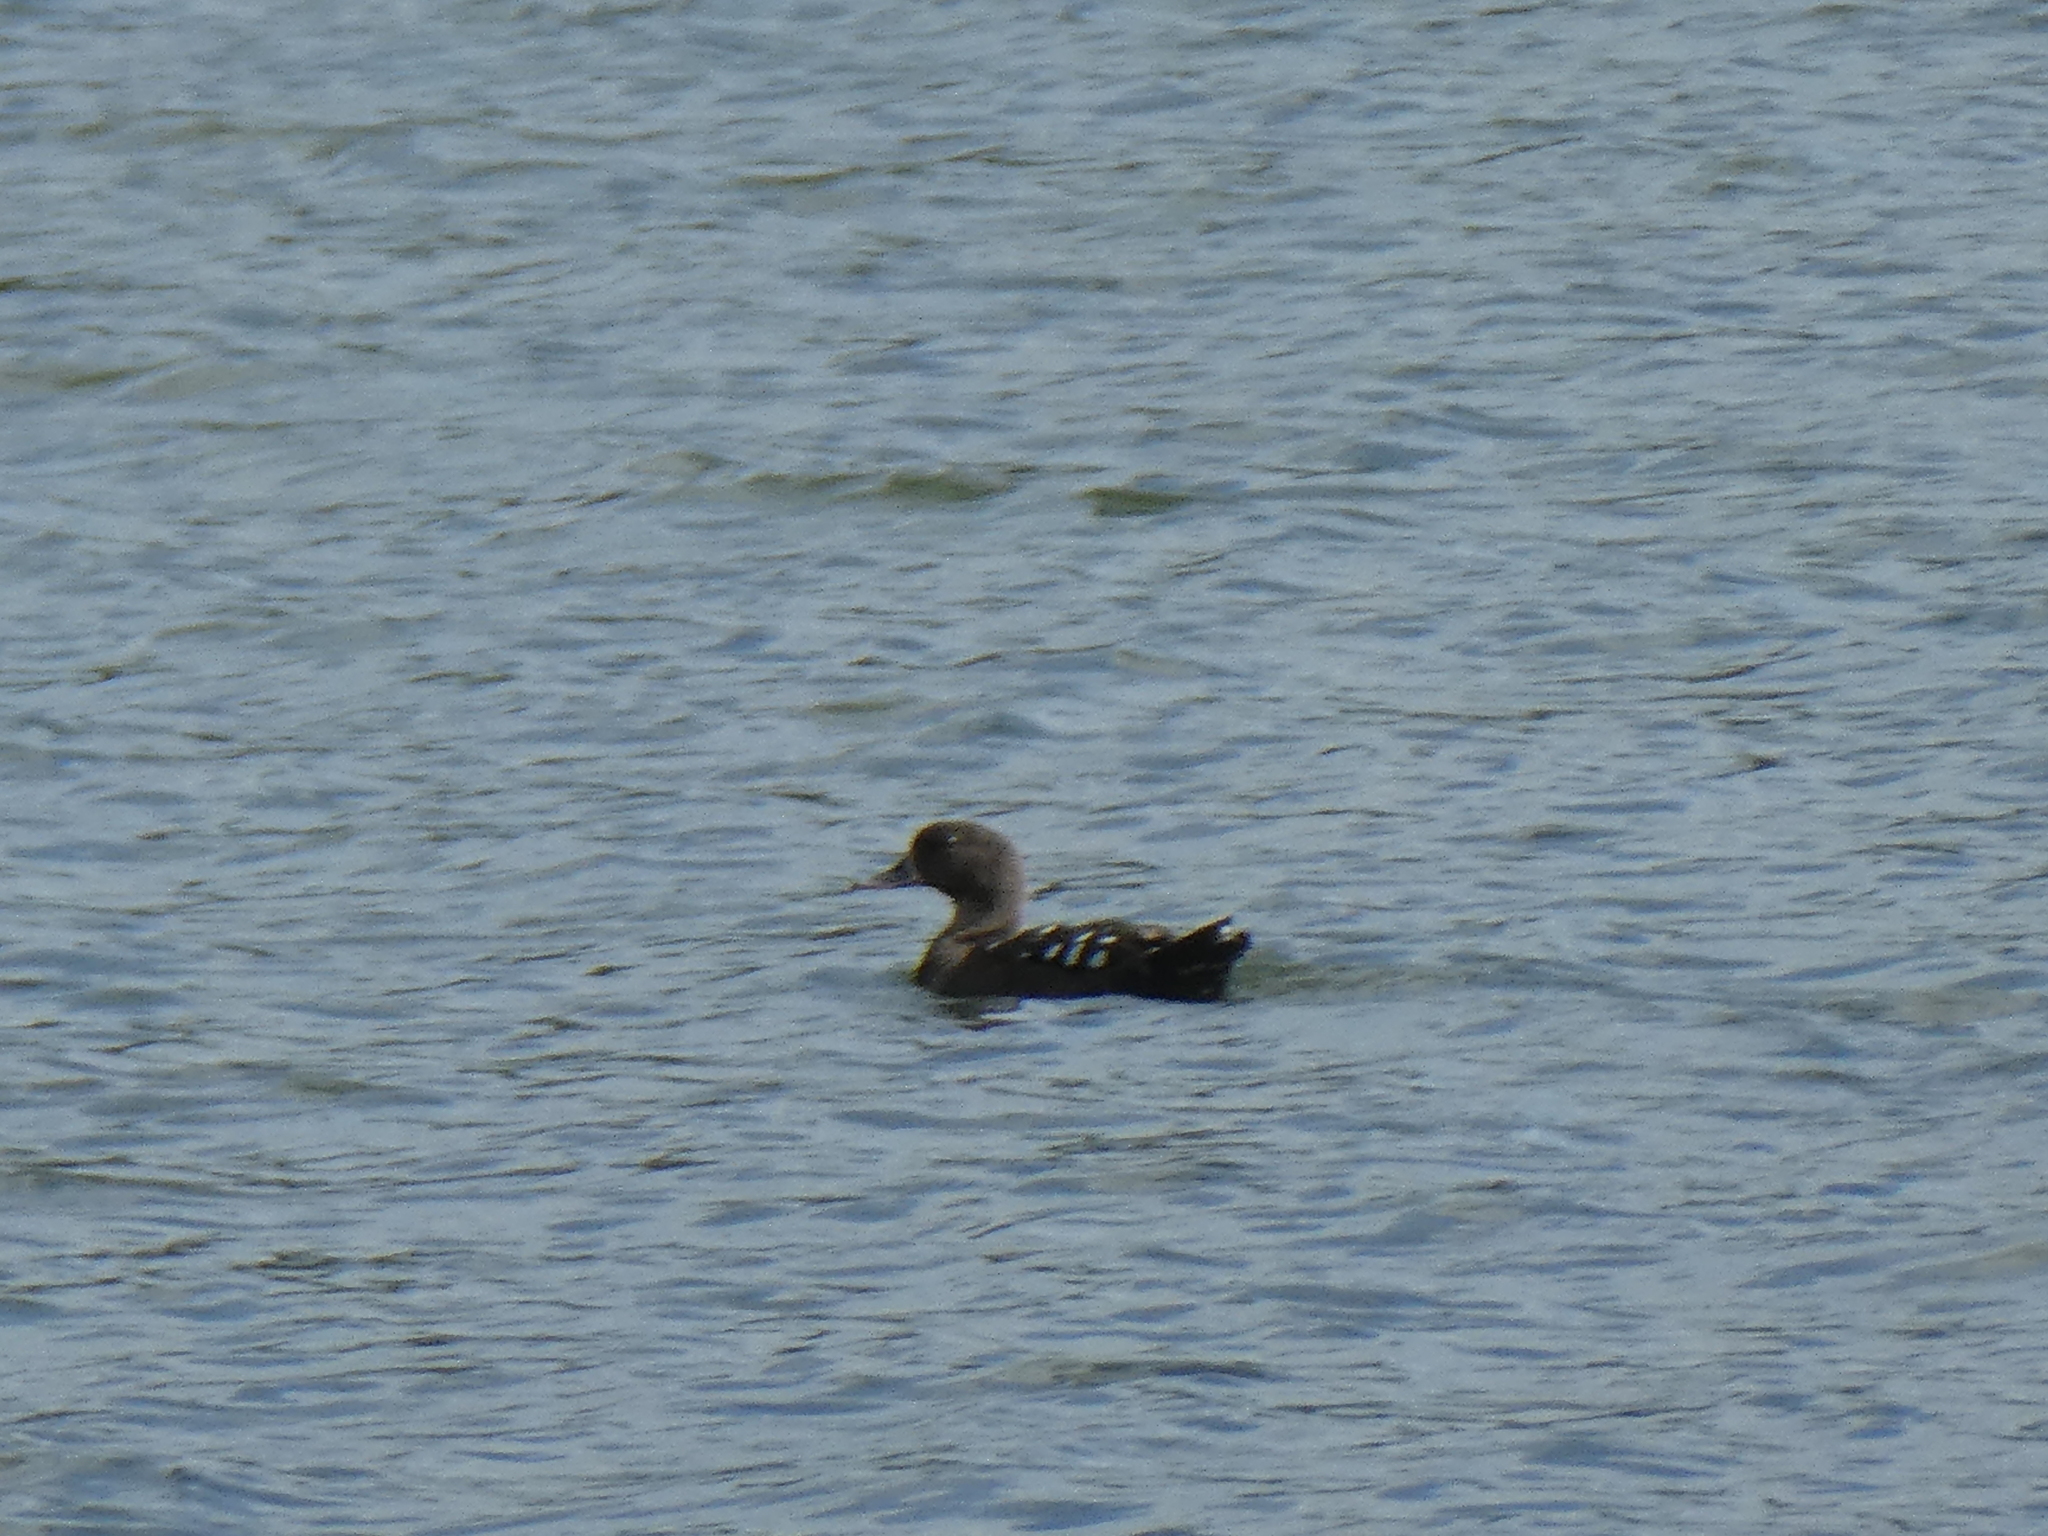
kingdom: Animalia
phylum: Chordata
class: Aves
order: Anseriformes
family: Anatidae
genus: Anas
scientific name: Anas sparsa
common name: African black duck
